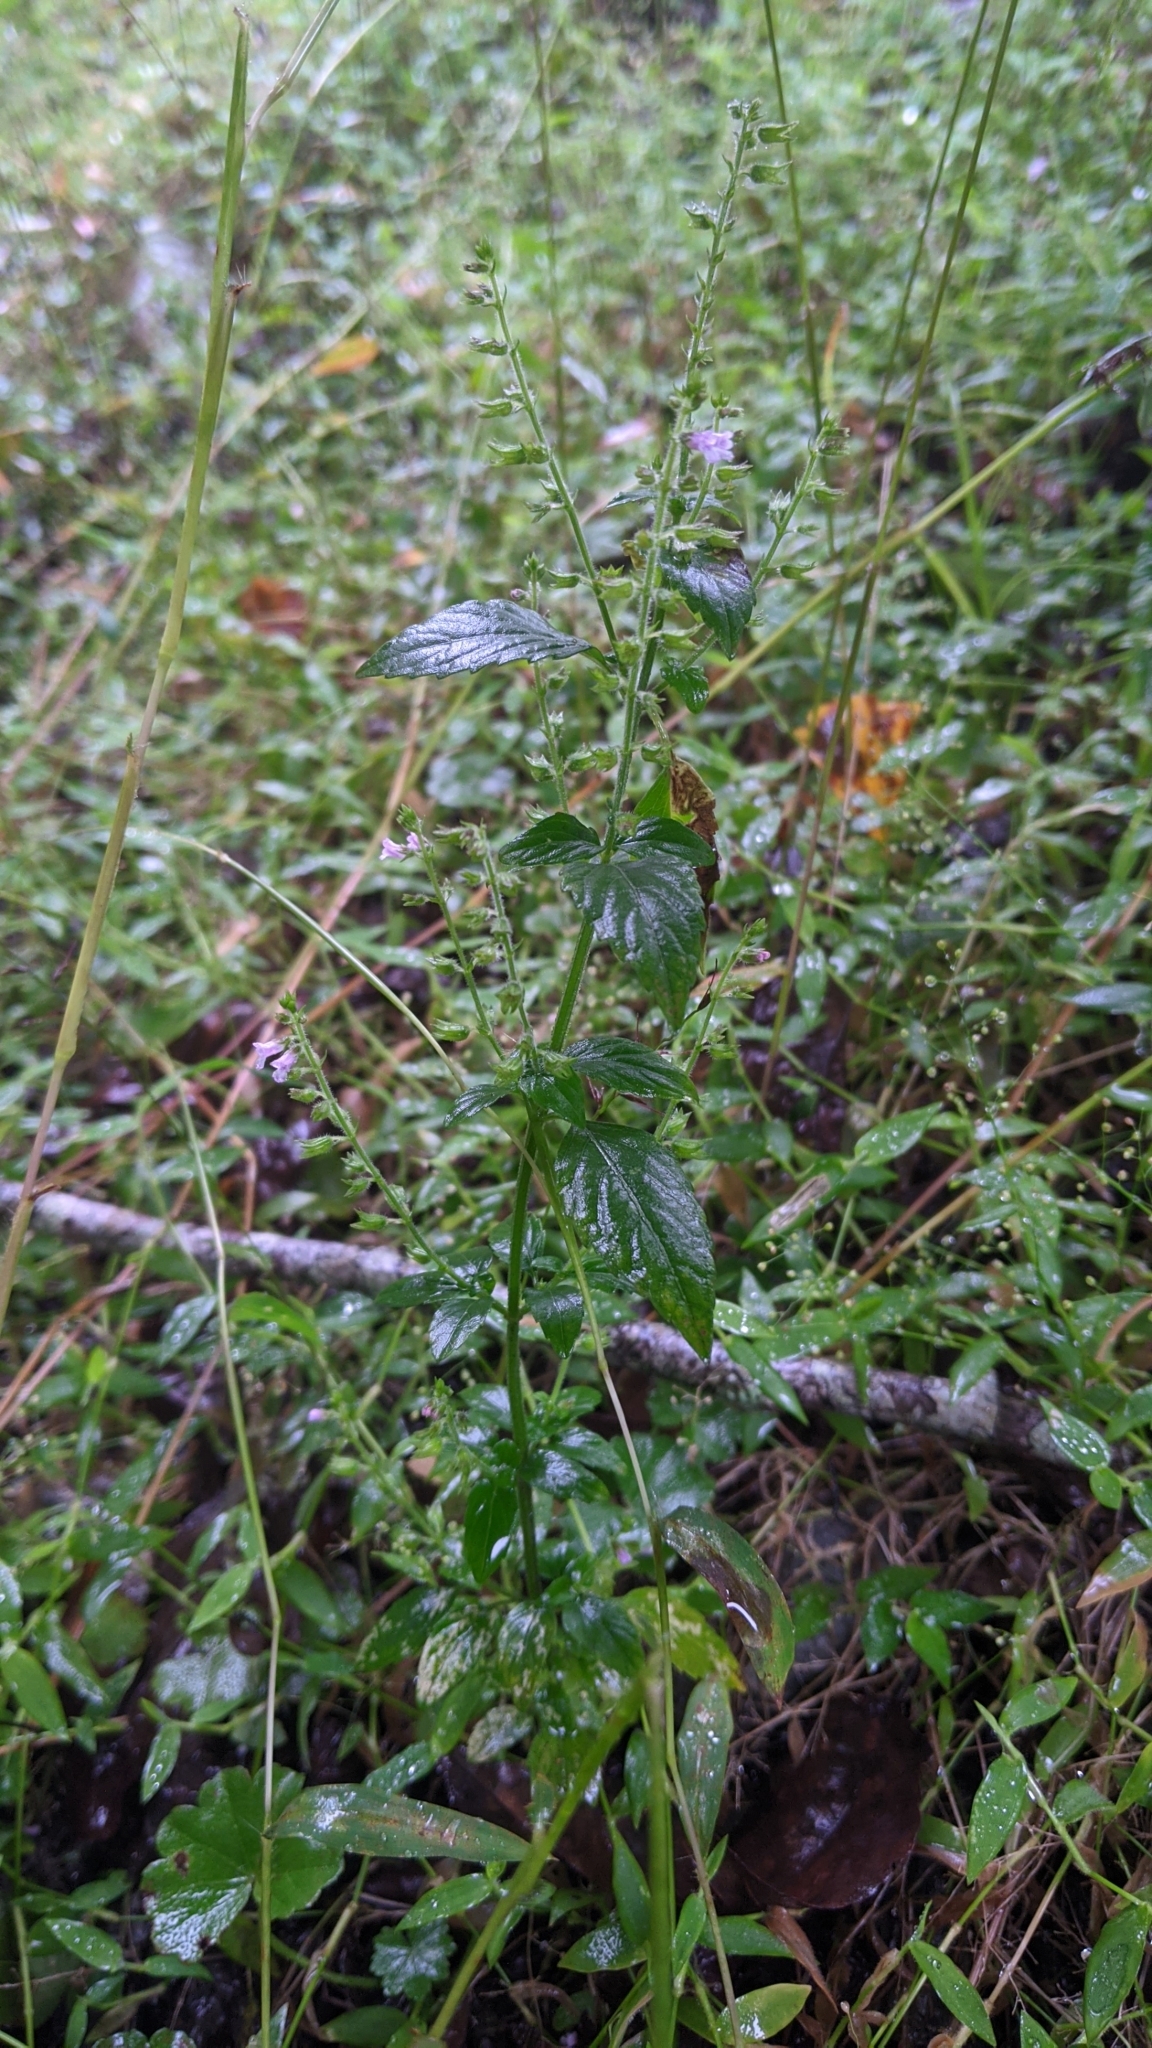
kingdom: Plantae
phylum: Tracheophyta
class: Magnoliopsida
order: Lamiales
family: Lamiaceae
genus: Mosla
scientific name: Mosla scabra
